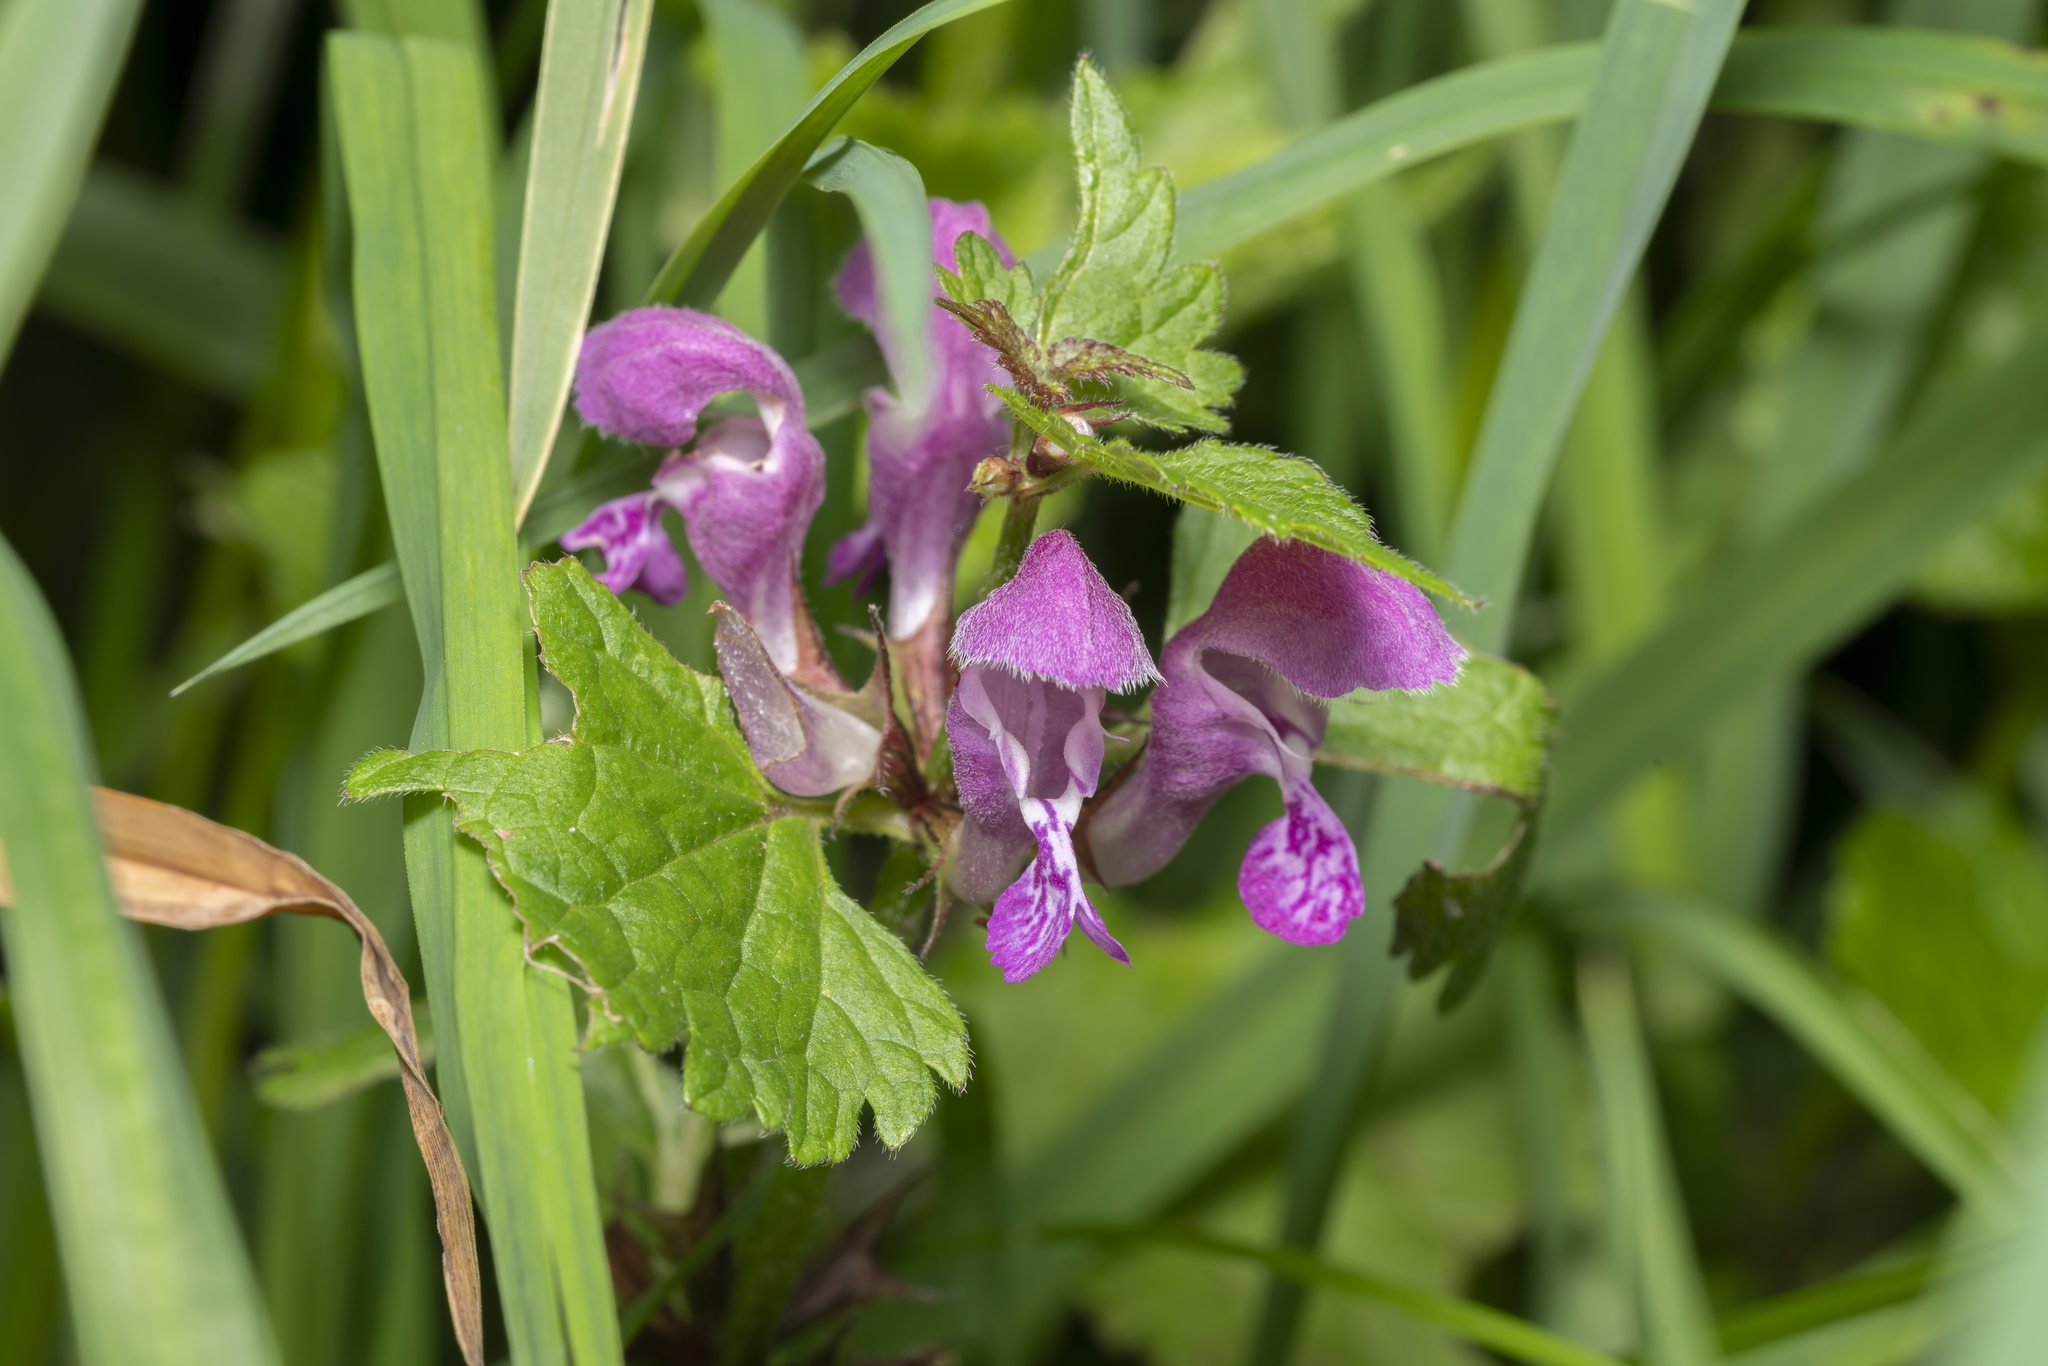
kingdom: Plantae
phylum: Tracheophyta
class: Magnoliopsida
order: Lamiales
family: Lamiaceae
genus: Lamium
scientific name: Lamium maculatum
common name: Spotted dead-nettle
